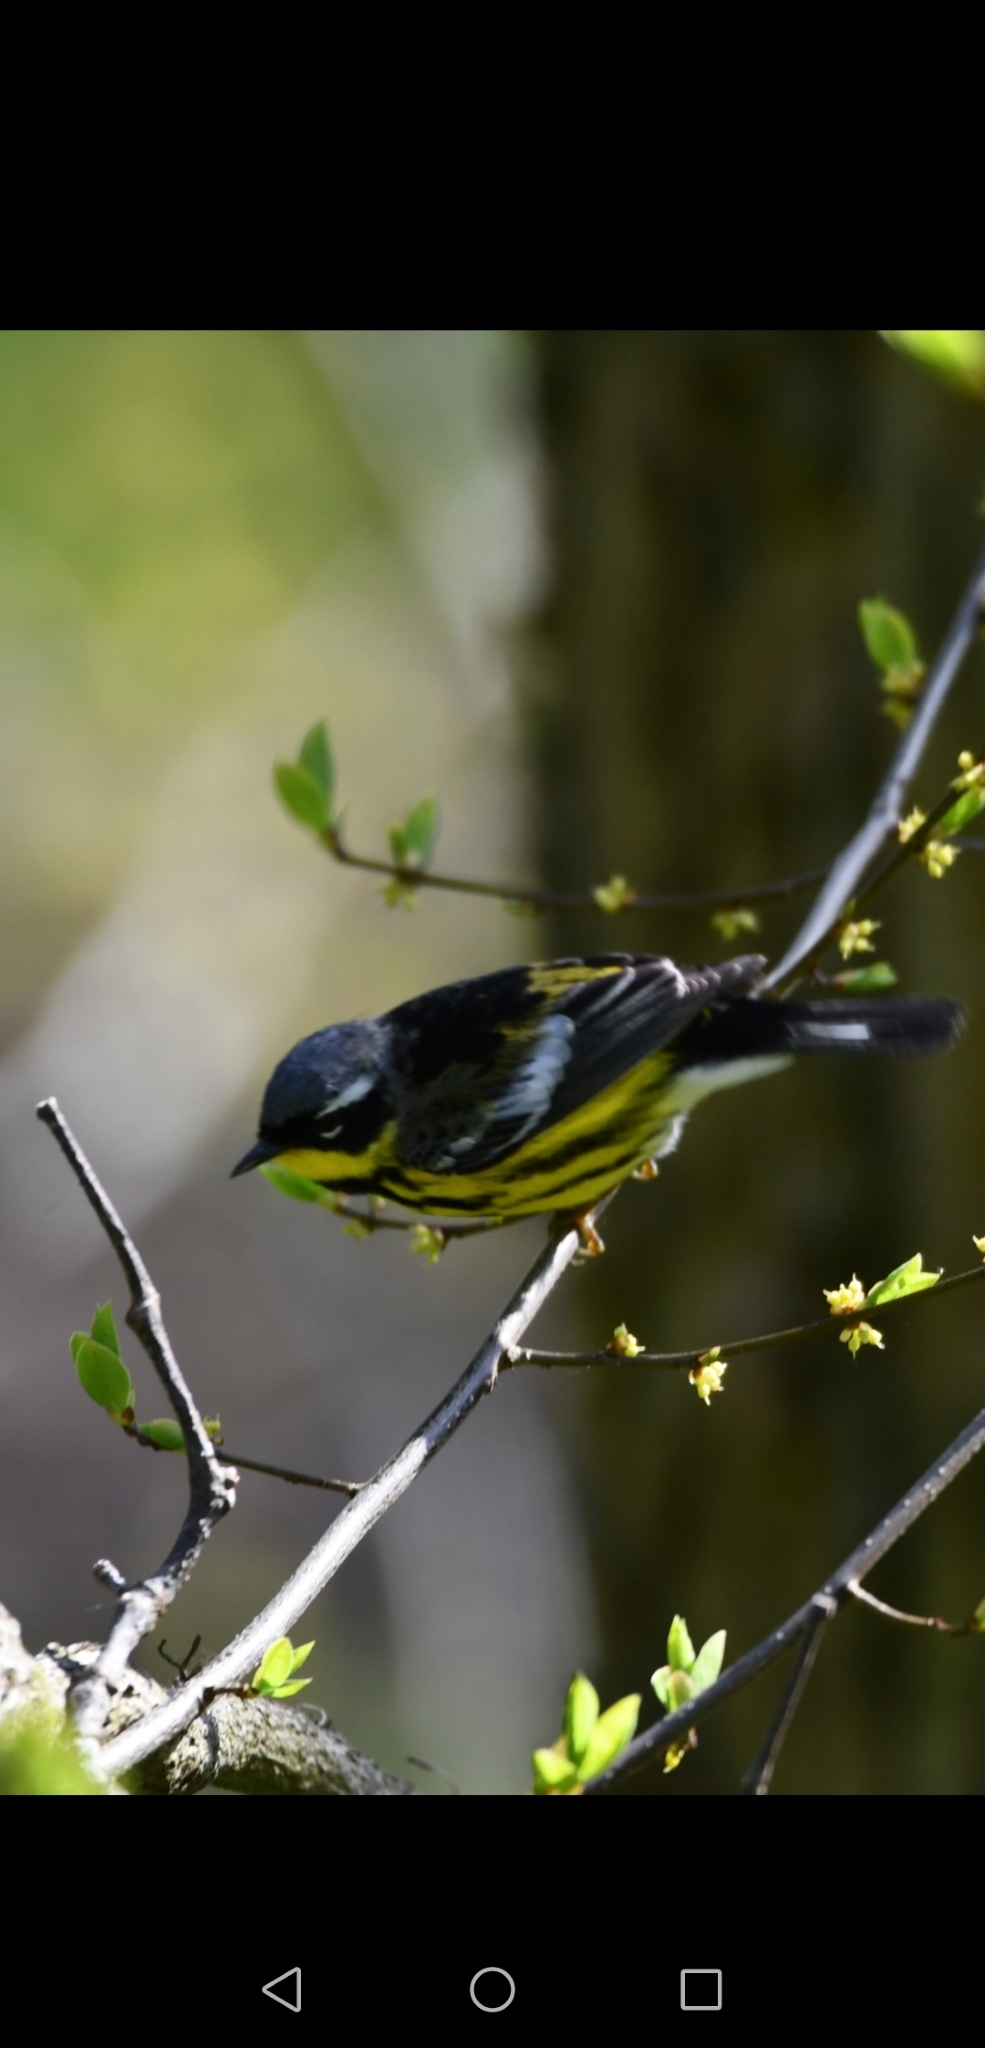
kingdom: Animalia
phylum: Chordata
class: Aves
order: Passeriformes
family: Parulidae
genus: Setophaga
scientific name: Setophaga magnolia
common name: Magnolia warbler
